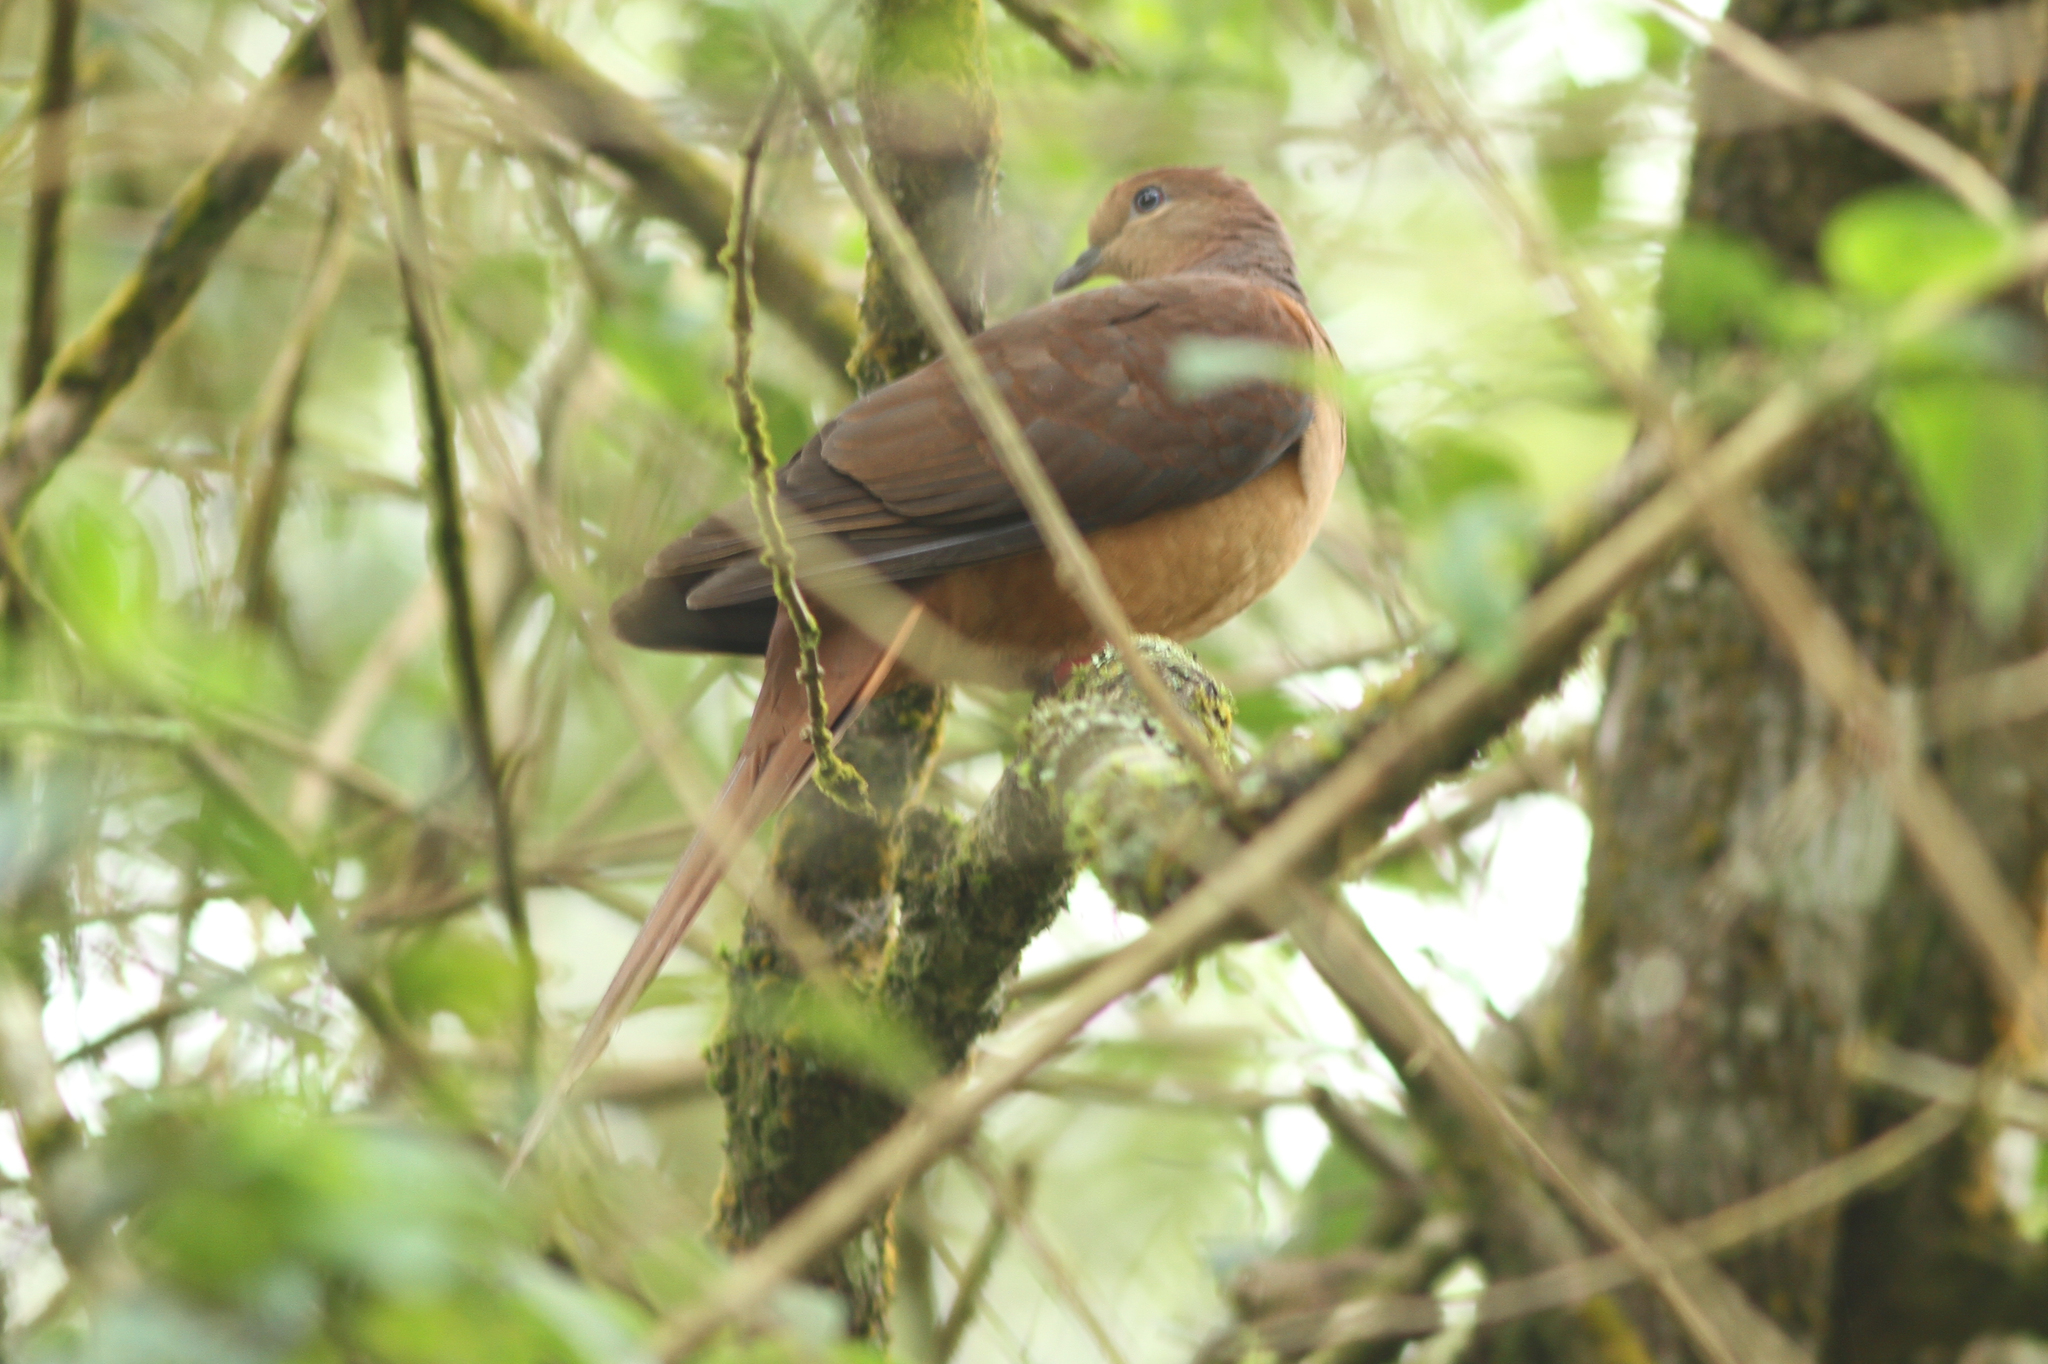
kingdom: Animalia
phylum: Chordata
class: Aves
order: Columbiformes
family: Columbidae
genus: Macropygia
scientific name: Macropygia phasianella
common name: Brown cuckoo-dove
